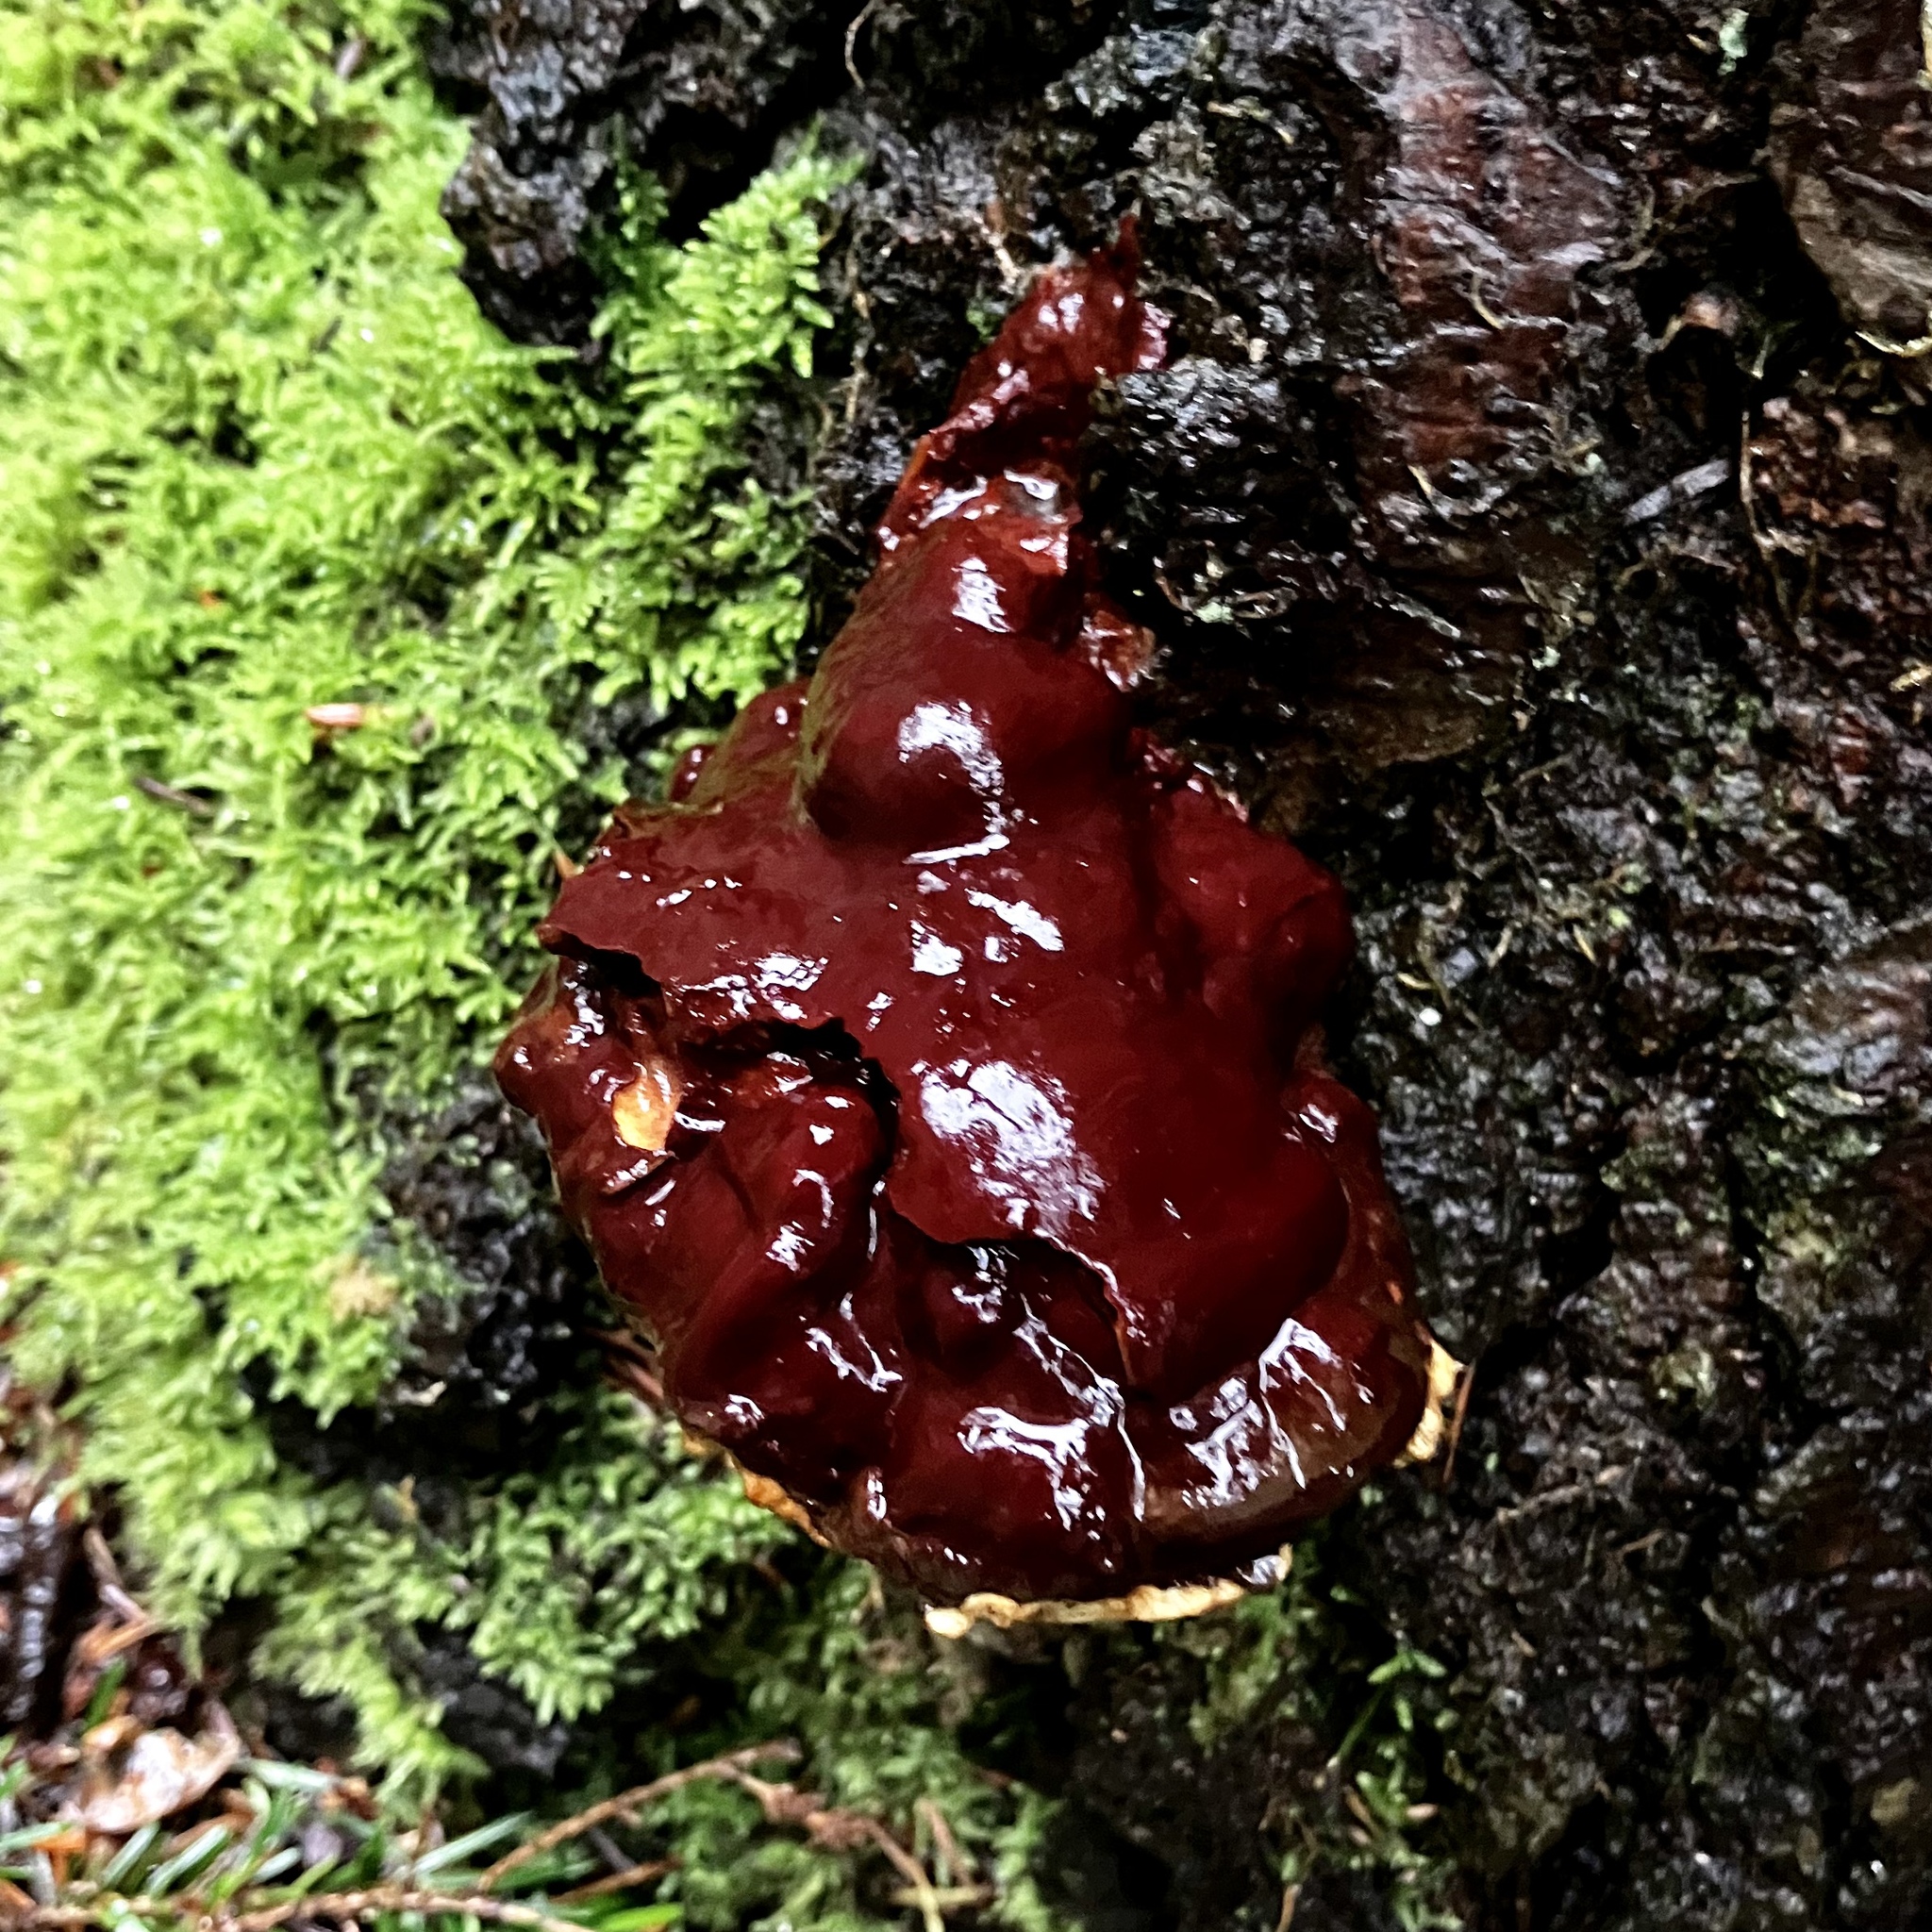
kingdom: Fungi
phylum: Basidiomycota
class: Agaricomycetes
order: Polyporales
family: Polyporaceae
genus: Ganoderma
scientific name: Ganoderma oregonense
